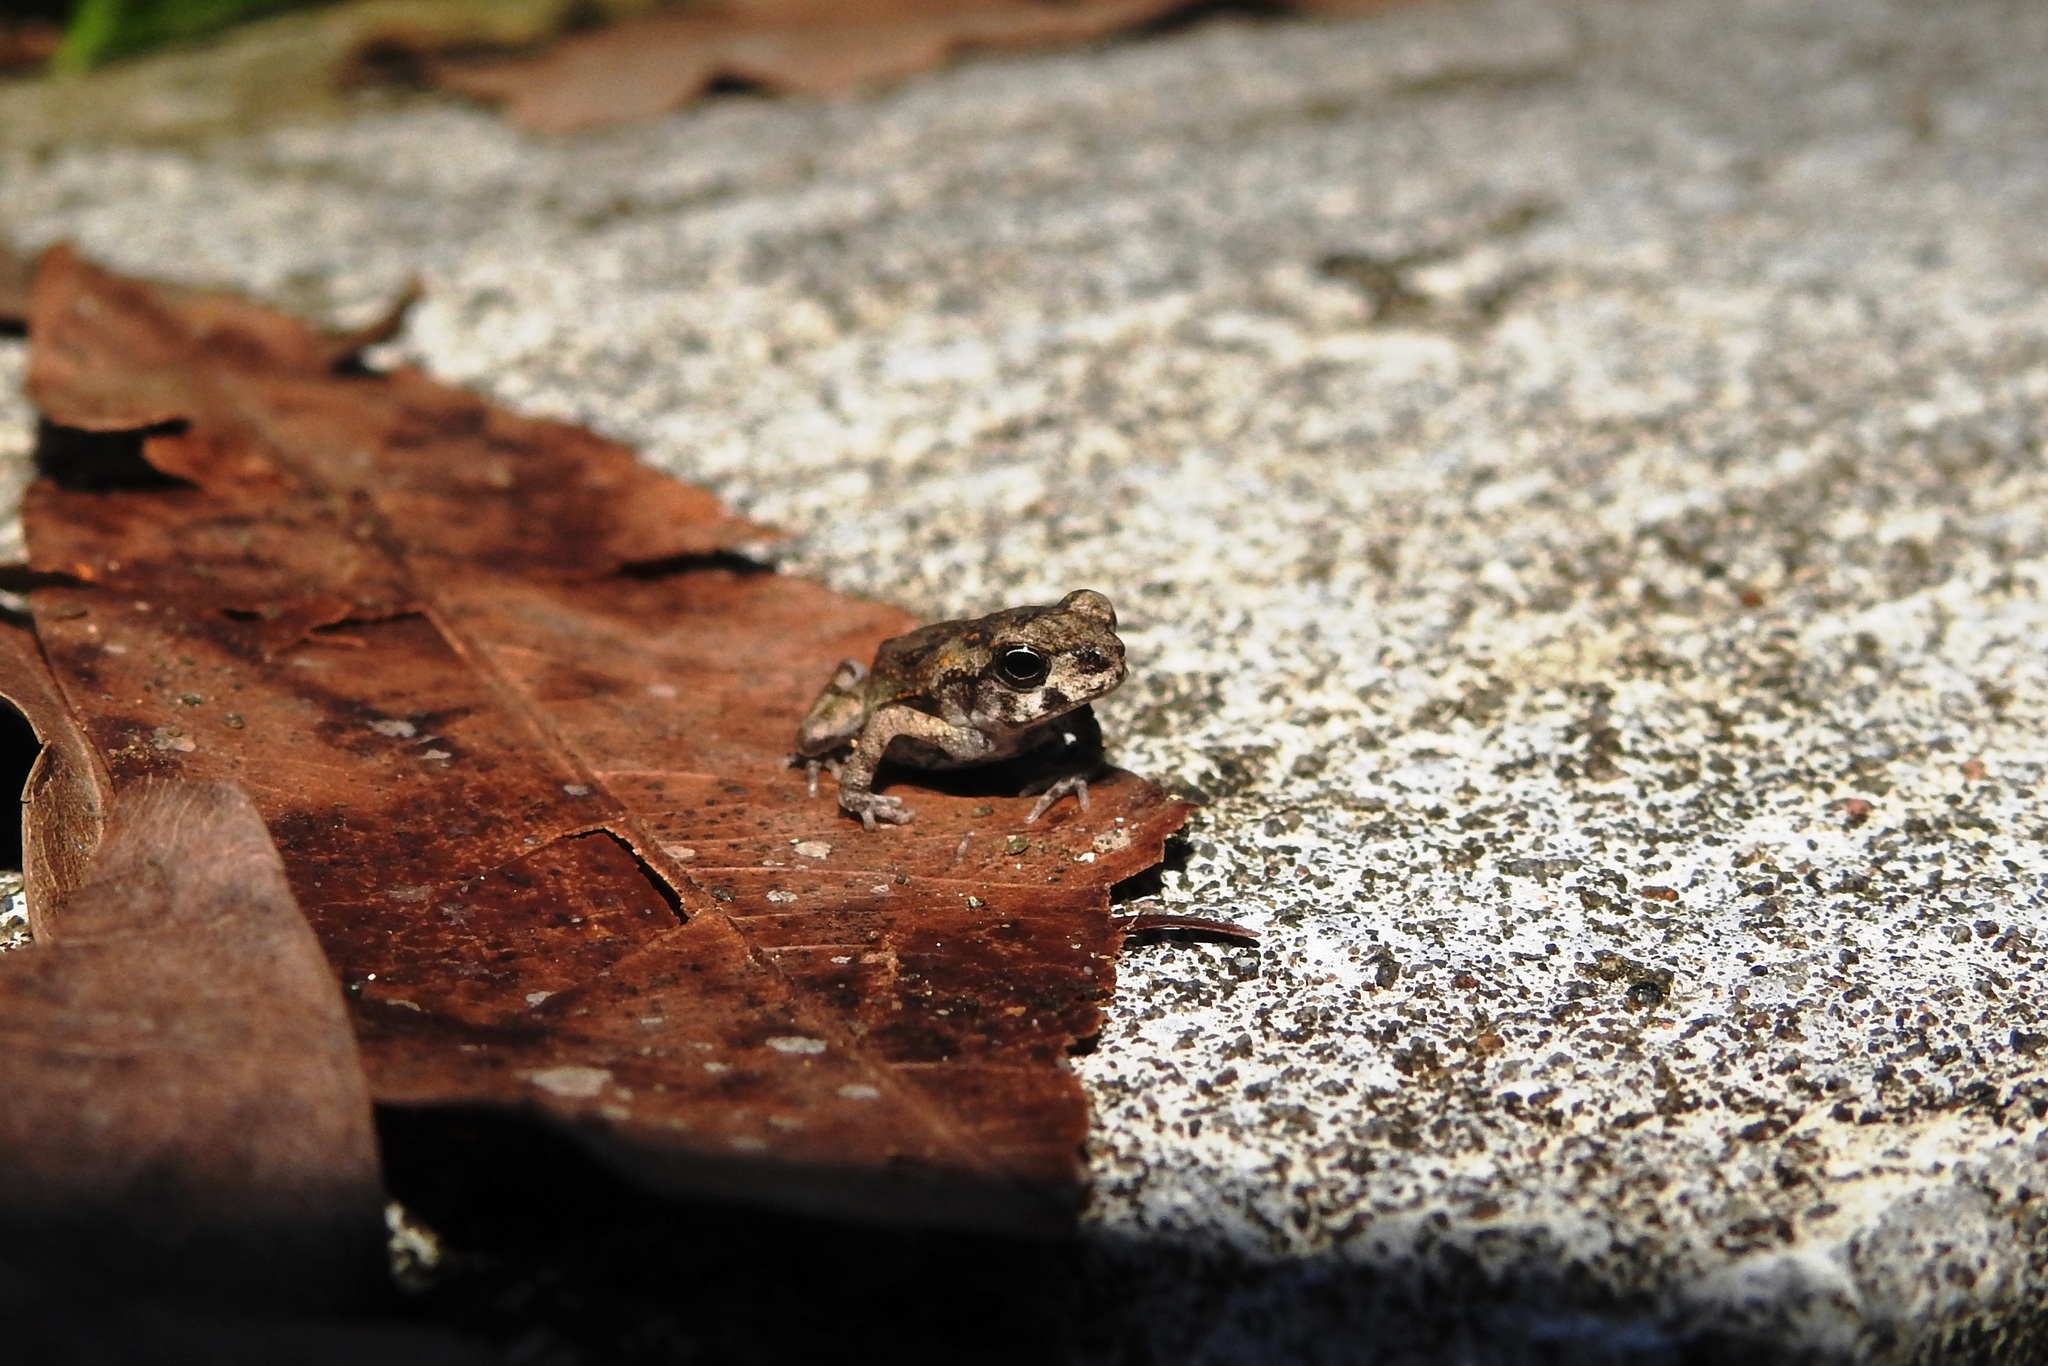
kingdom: Animalia
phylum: Chordata
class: Amphibia
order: Anura
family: Bufonidae
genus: Rhinella
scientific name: Rhinella marina
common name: Cane toad
